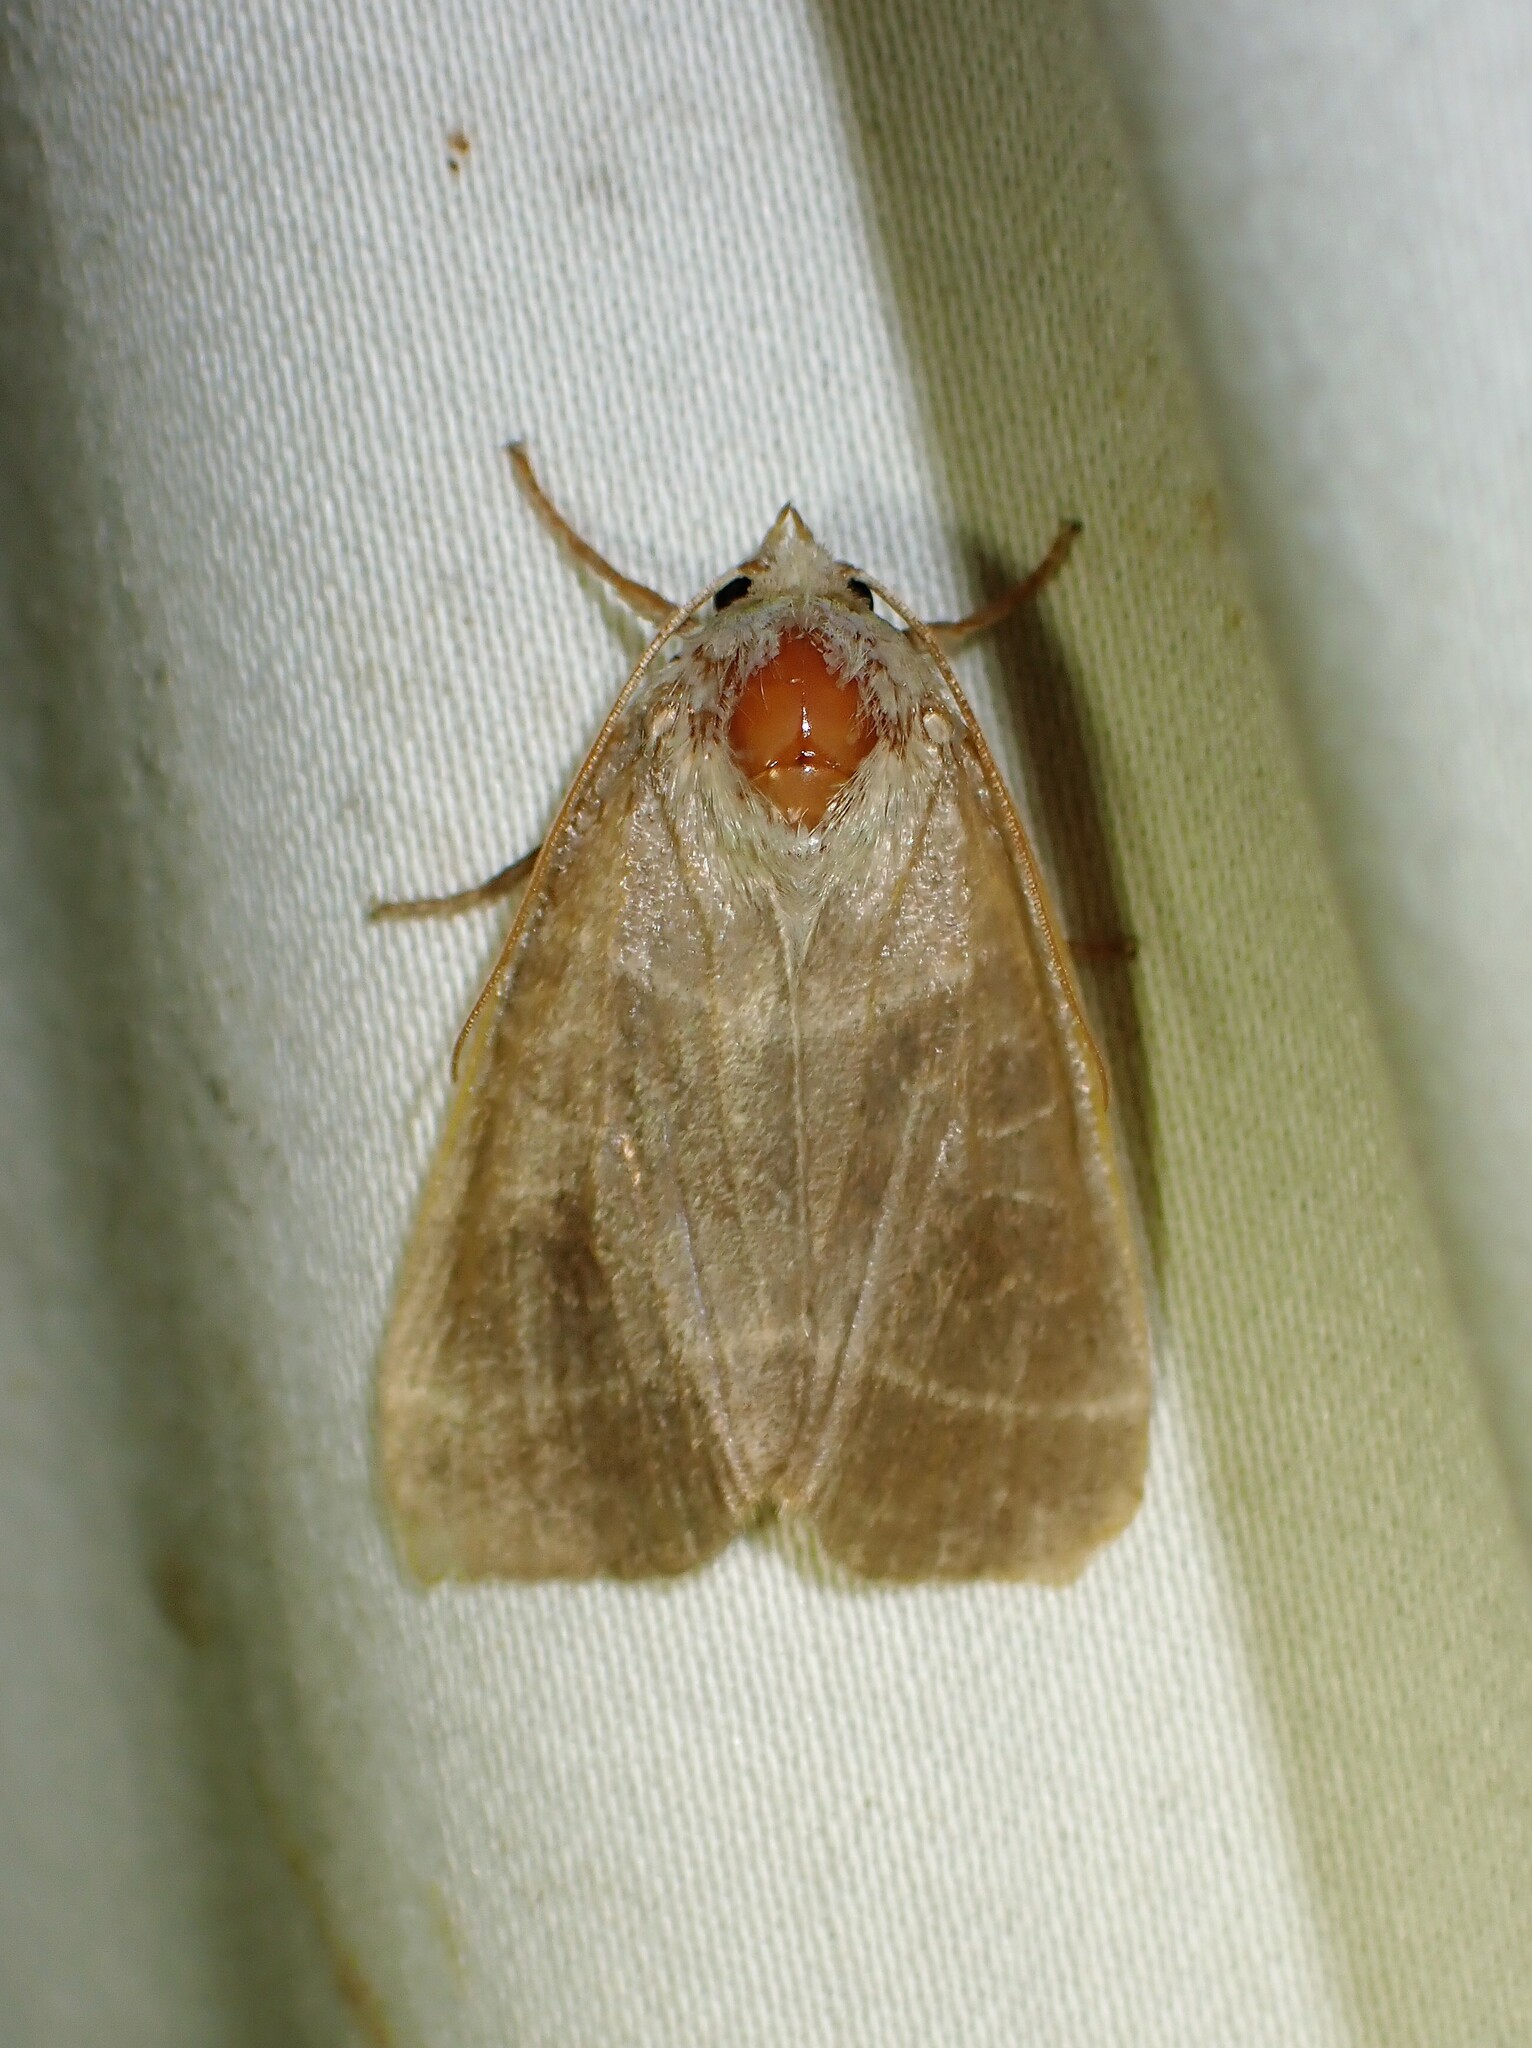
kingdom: Animalia
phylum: Arthropoda
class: Insecta
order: Lepidoptera
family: Noctuidae
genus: Ipimorpha
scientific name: Ipimorpha pleonectusa
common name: Even-lined sallow
